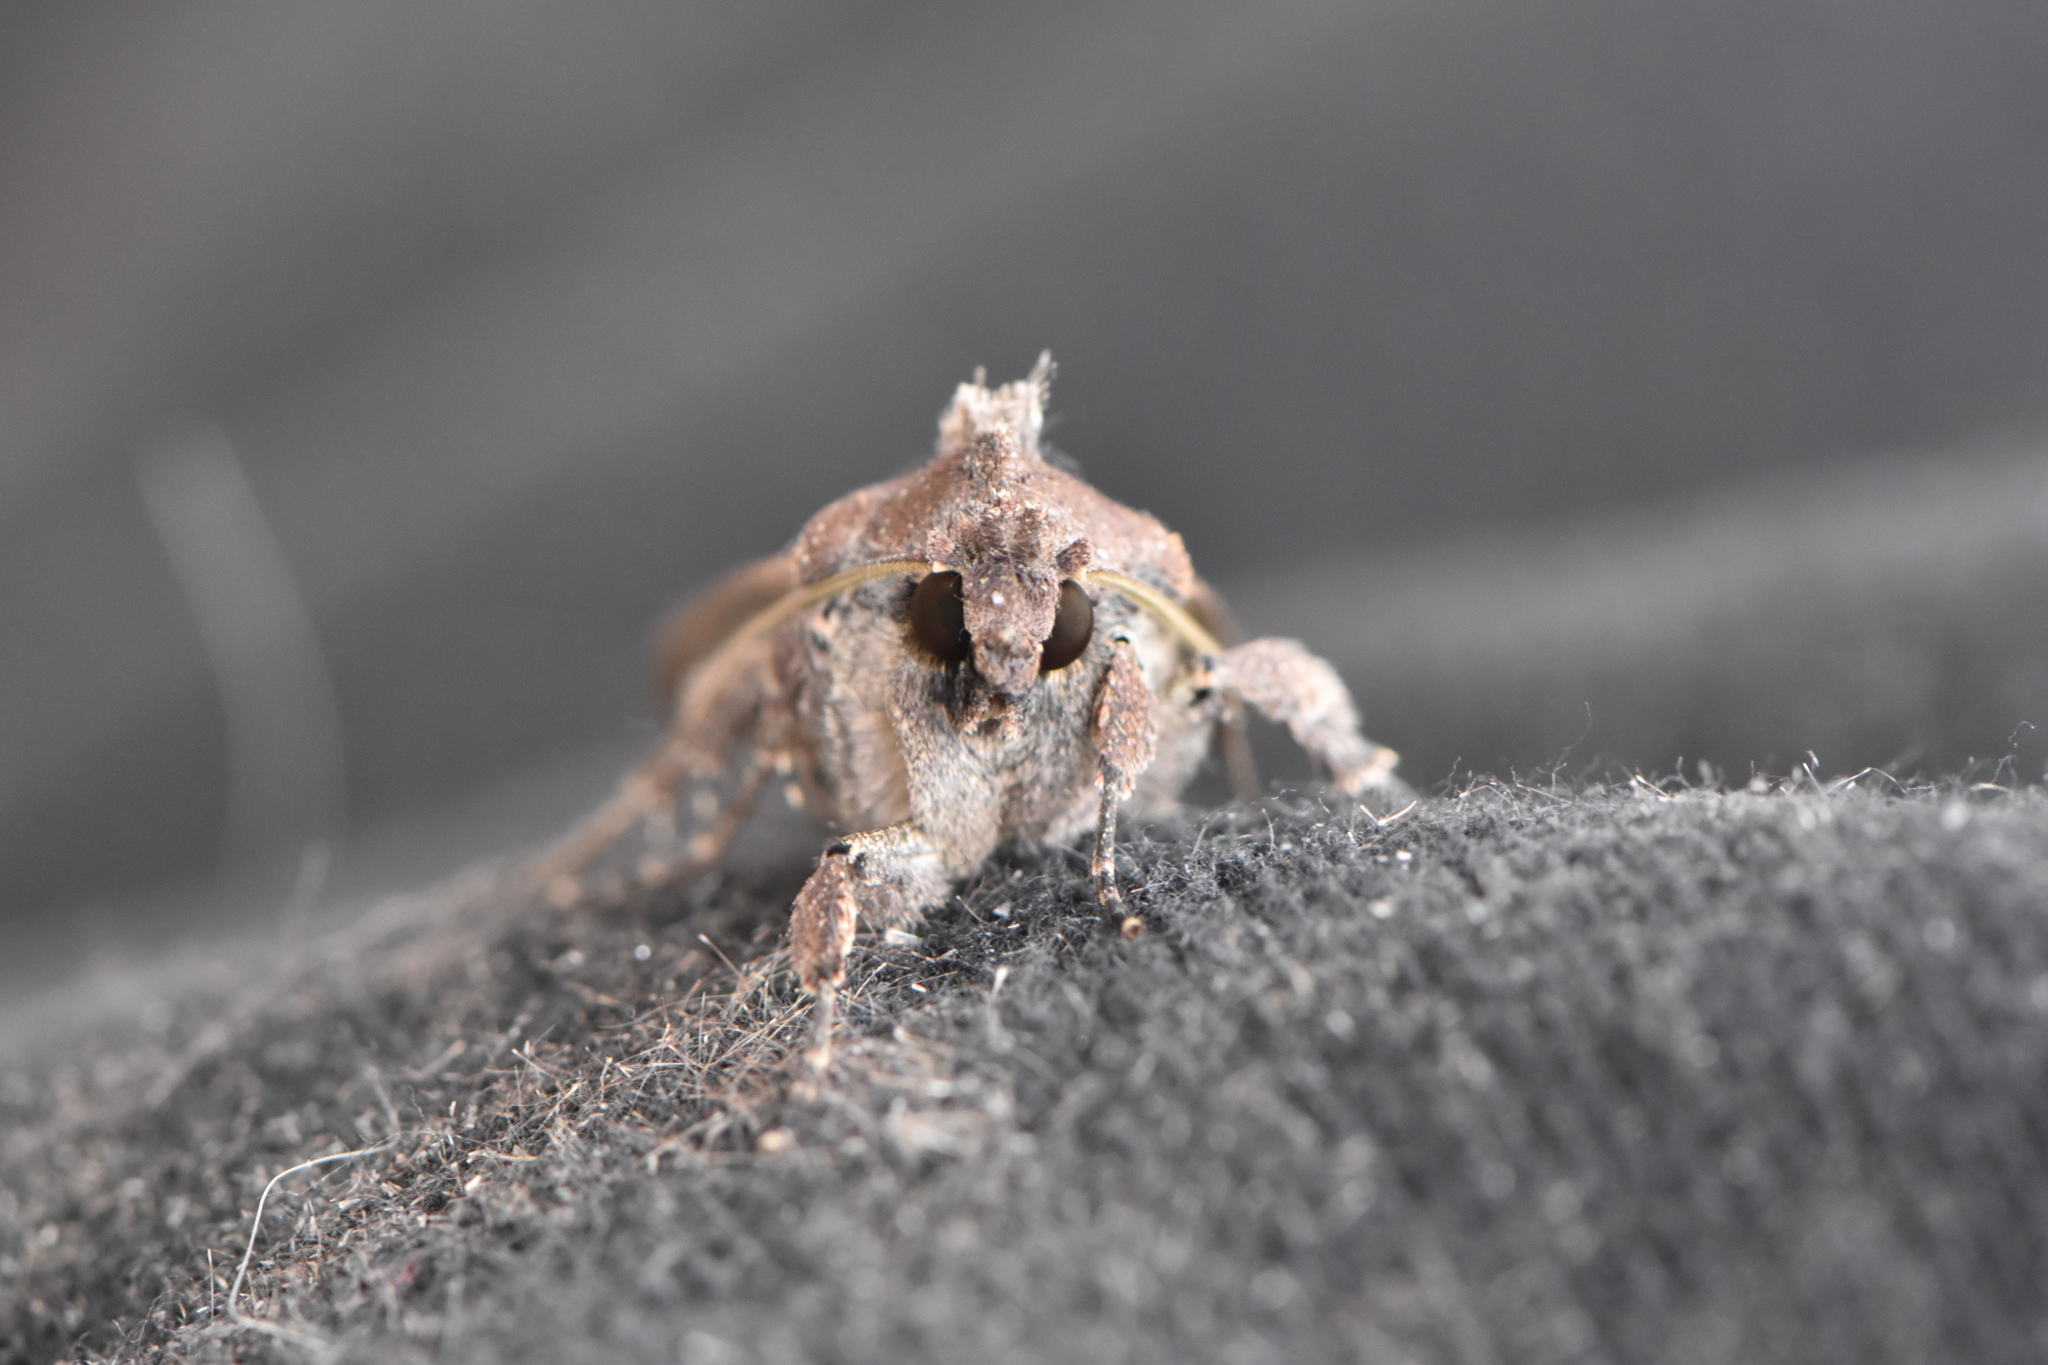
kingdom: Animalia
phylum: Arthropoda
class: Insecta
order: Lepidoptera
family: Noctuidae
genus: Peridroma
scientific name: Peridroma saucia
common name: Pearly underwing
